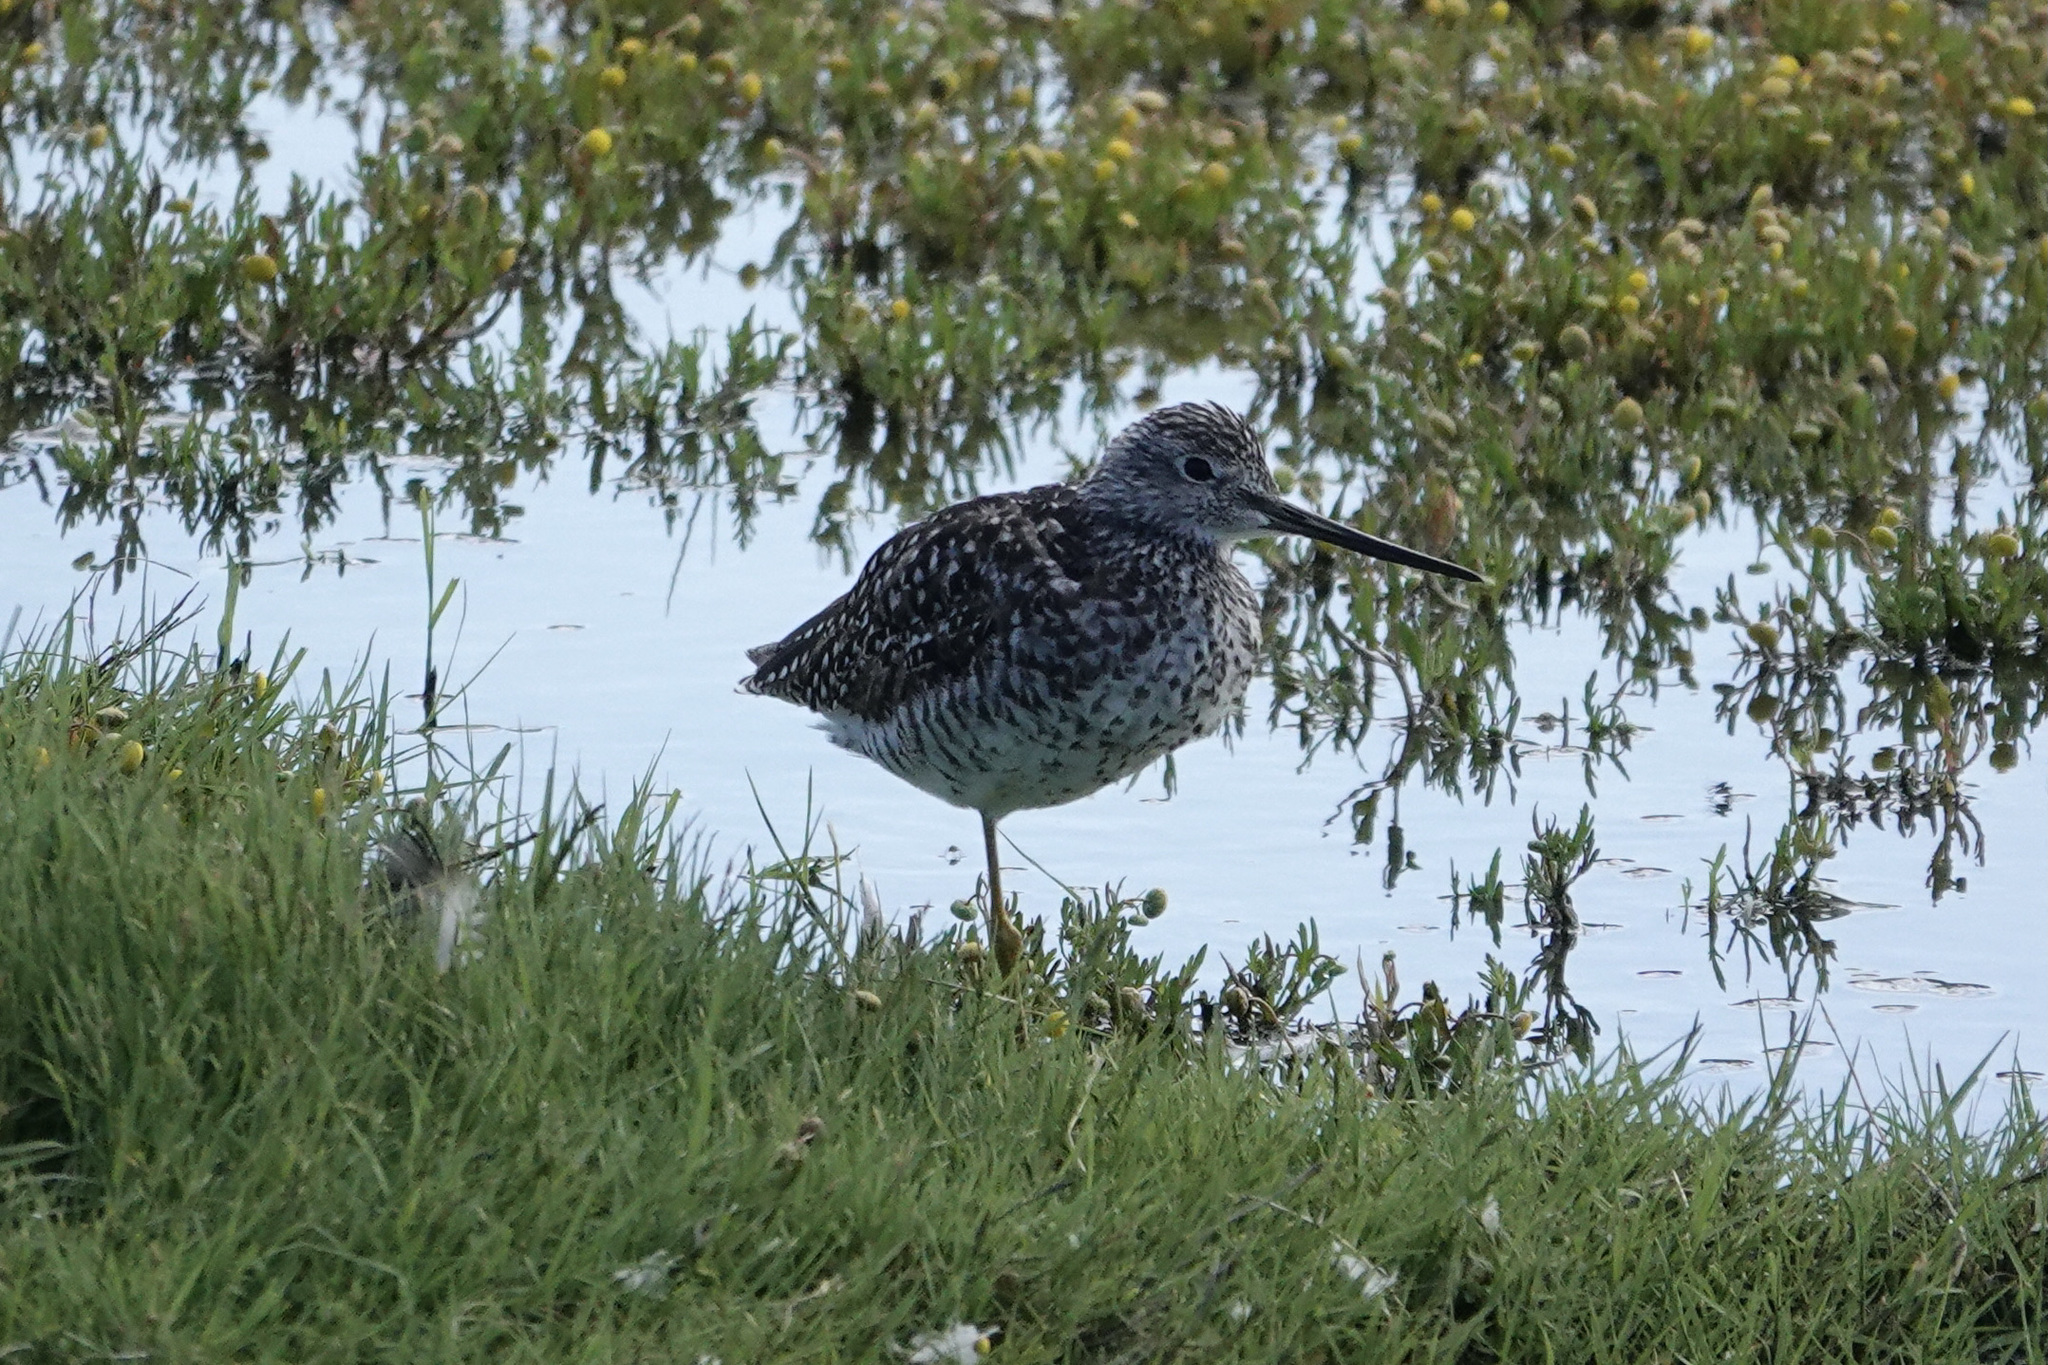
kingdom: Animalia
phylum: Chordata
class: Aves
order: Charadriiformes
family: Scolopacidae
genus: Tringa
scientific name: Tringa melanoleuca
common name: Greater yellowlegs
